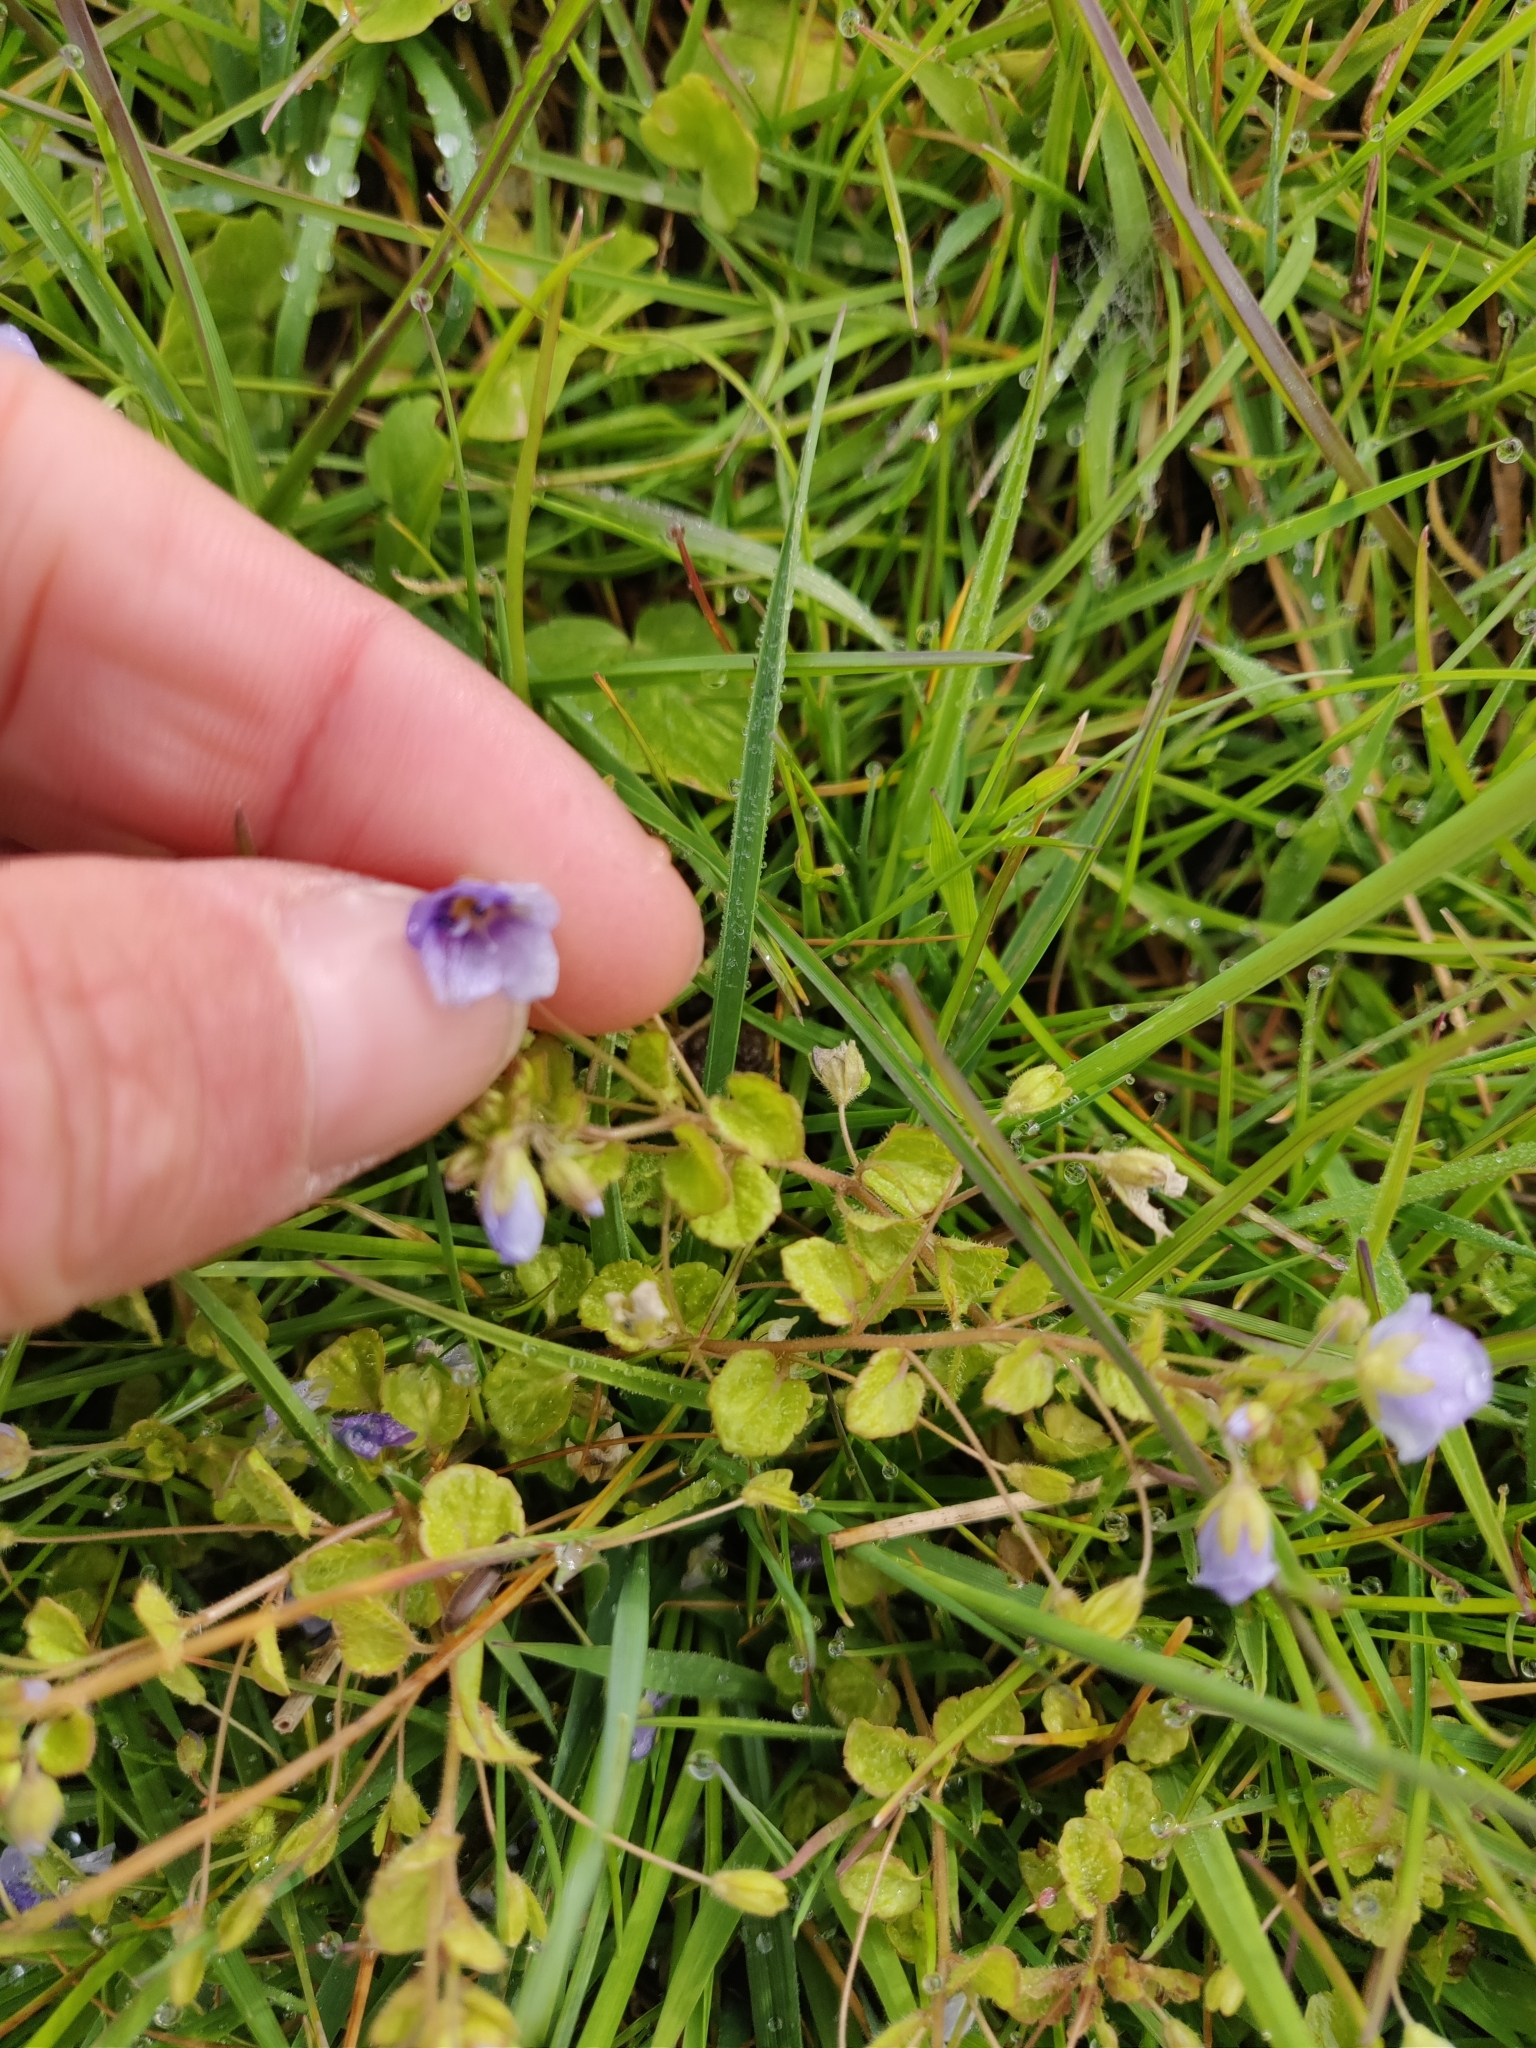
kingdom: Plantae
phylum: Tracheophyta
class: Magnoliopsida
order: Lamiales
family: Plantaginaceae
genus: Veronica
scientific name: Veronica filiformis
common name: Slender speedwell
